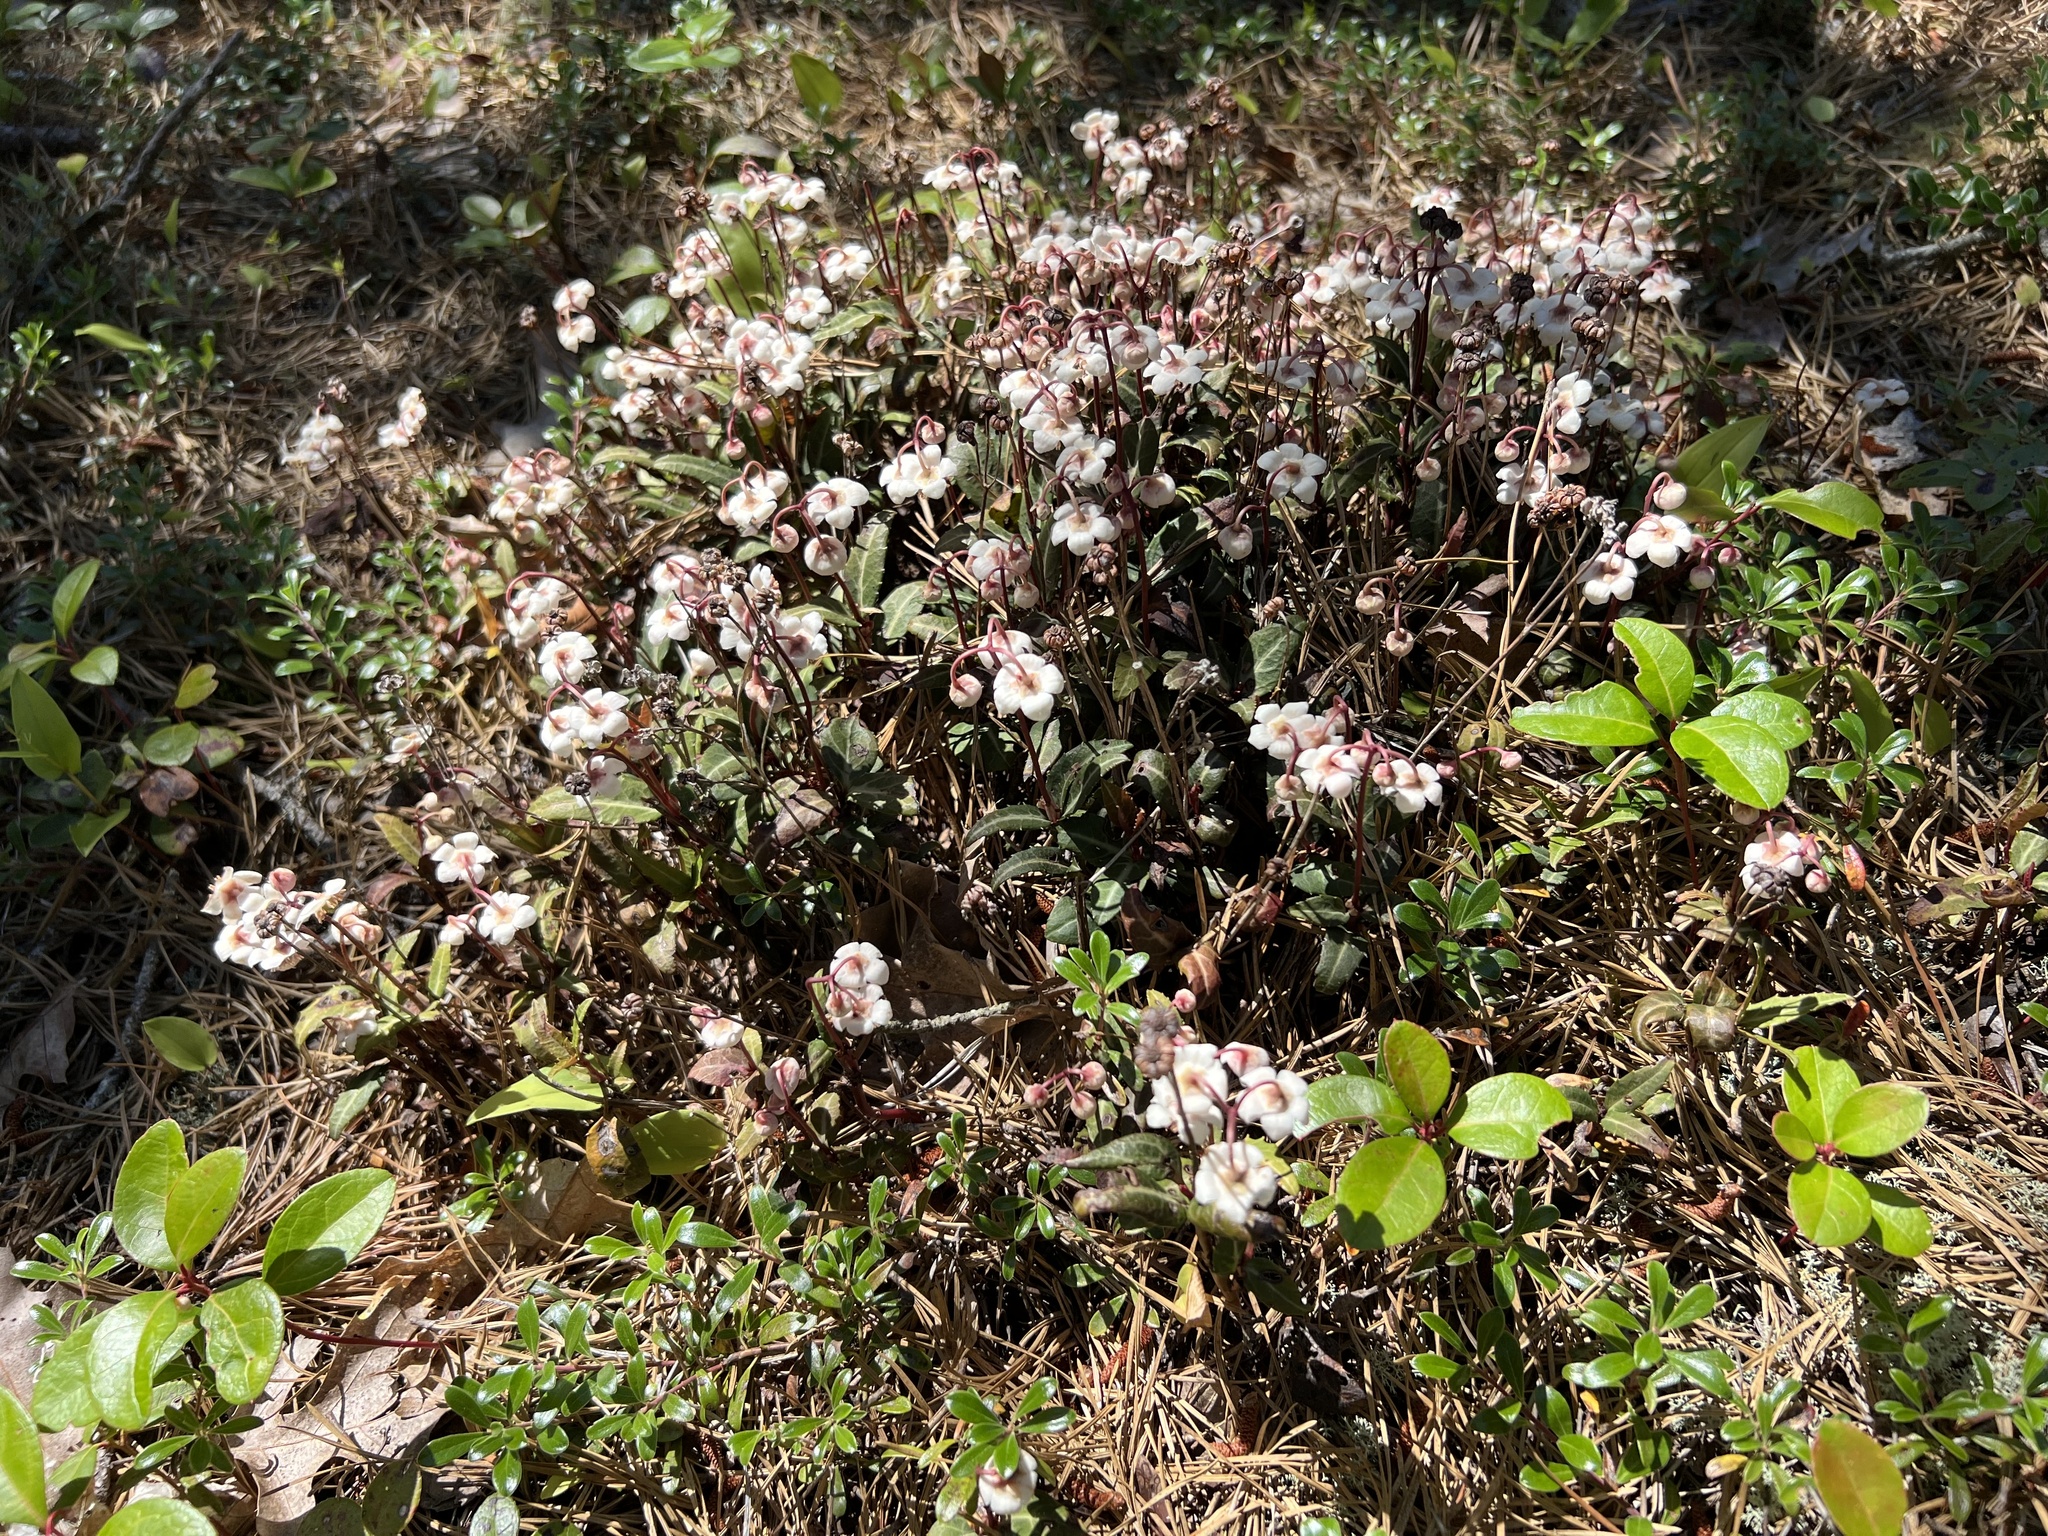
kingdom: Plantae
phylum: Tracheophyta
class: Magnoliopsida
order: Ericales
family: Ericaceae
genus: Chimaphila
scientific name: Chimaphila maculata
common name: Spotted pipsissewa
